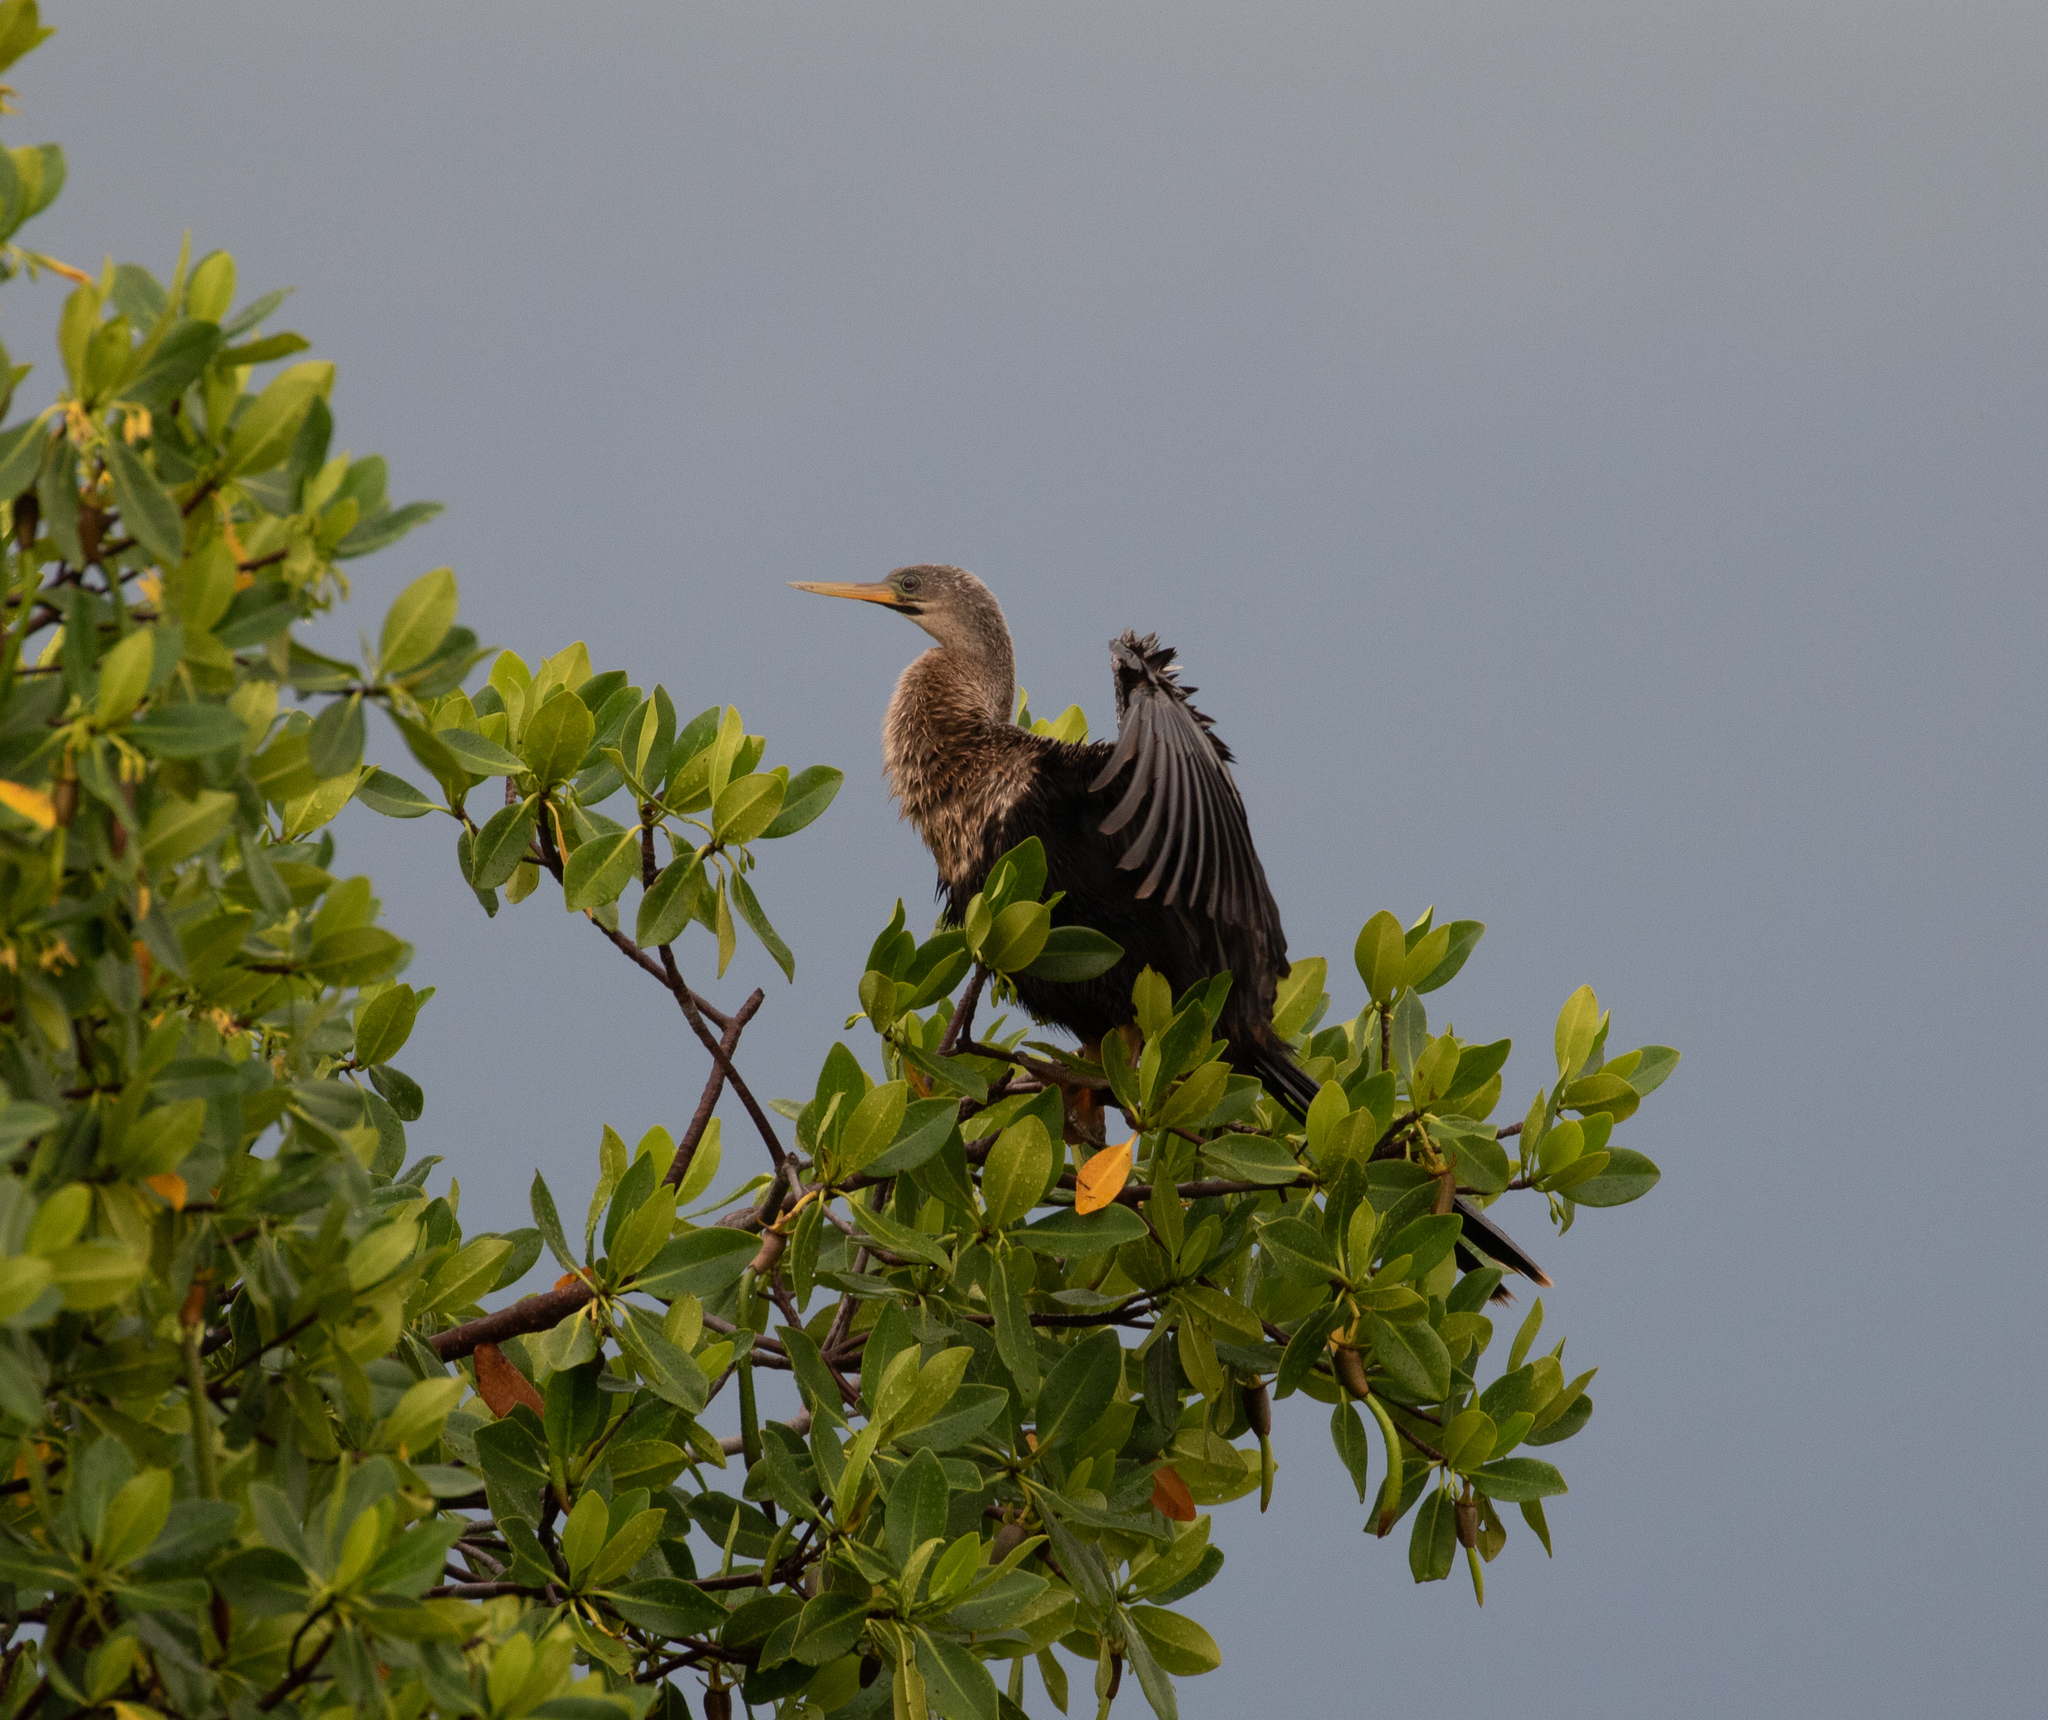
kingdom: Animalia
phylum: Chordata
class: Aves
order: Suliformes
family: Anhingidae
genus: Anhinga
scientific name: Anhinga anhinga
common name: Anhinga
